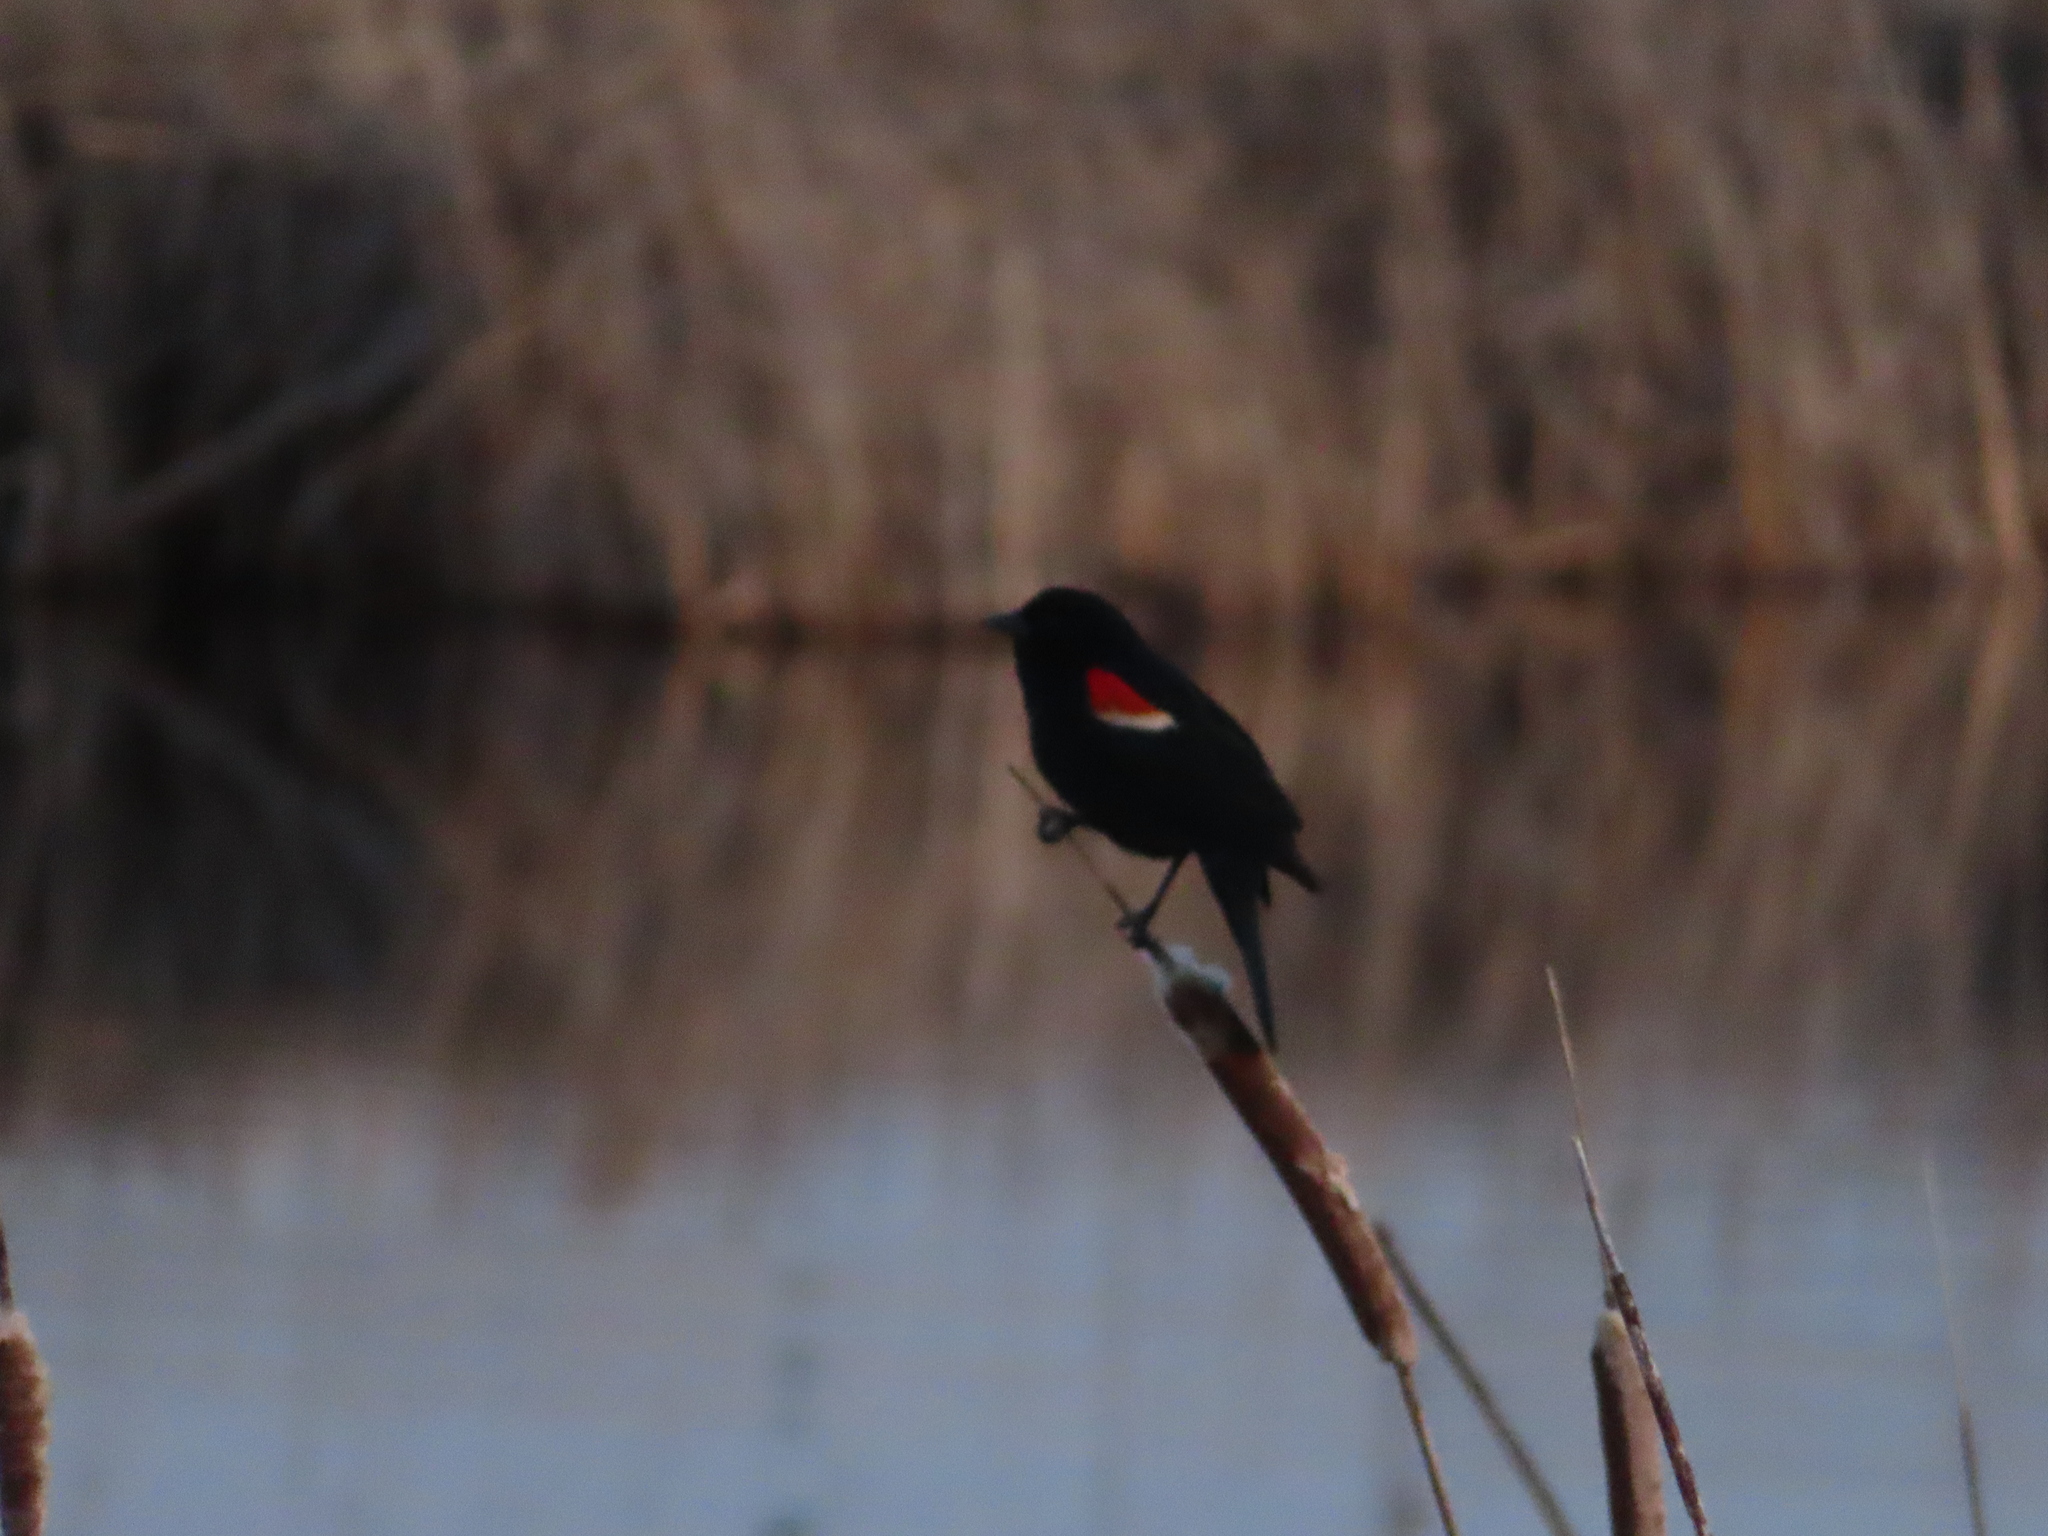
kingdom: Animalia
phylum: Chordata
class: Aves
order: Passeriformes
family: Icteridae
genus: Agelaius
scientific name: Agelaius phoeniceus
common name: Red-winged blackbird
